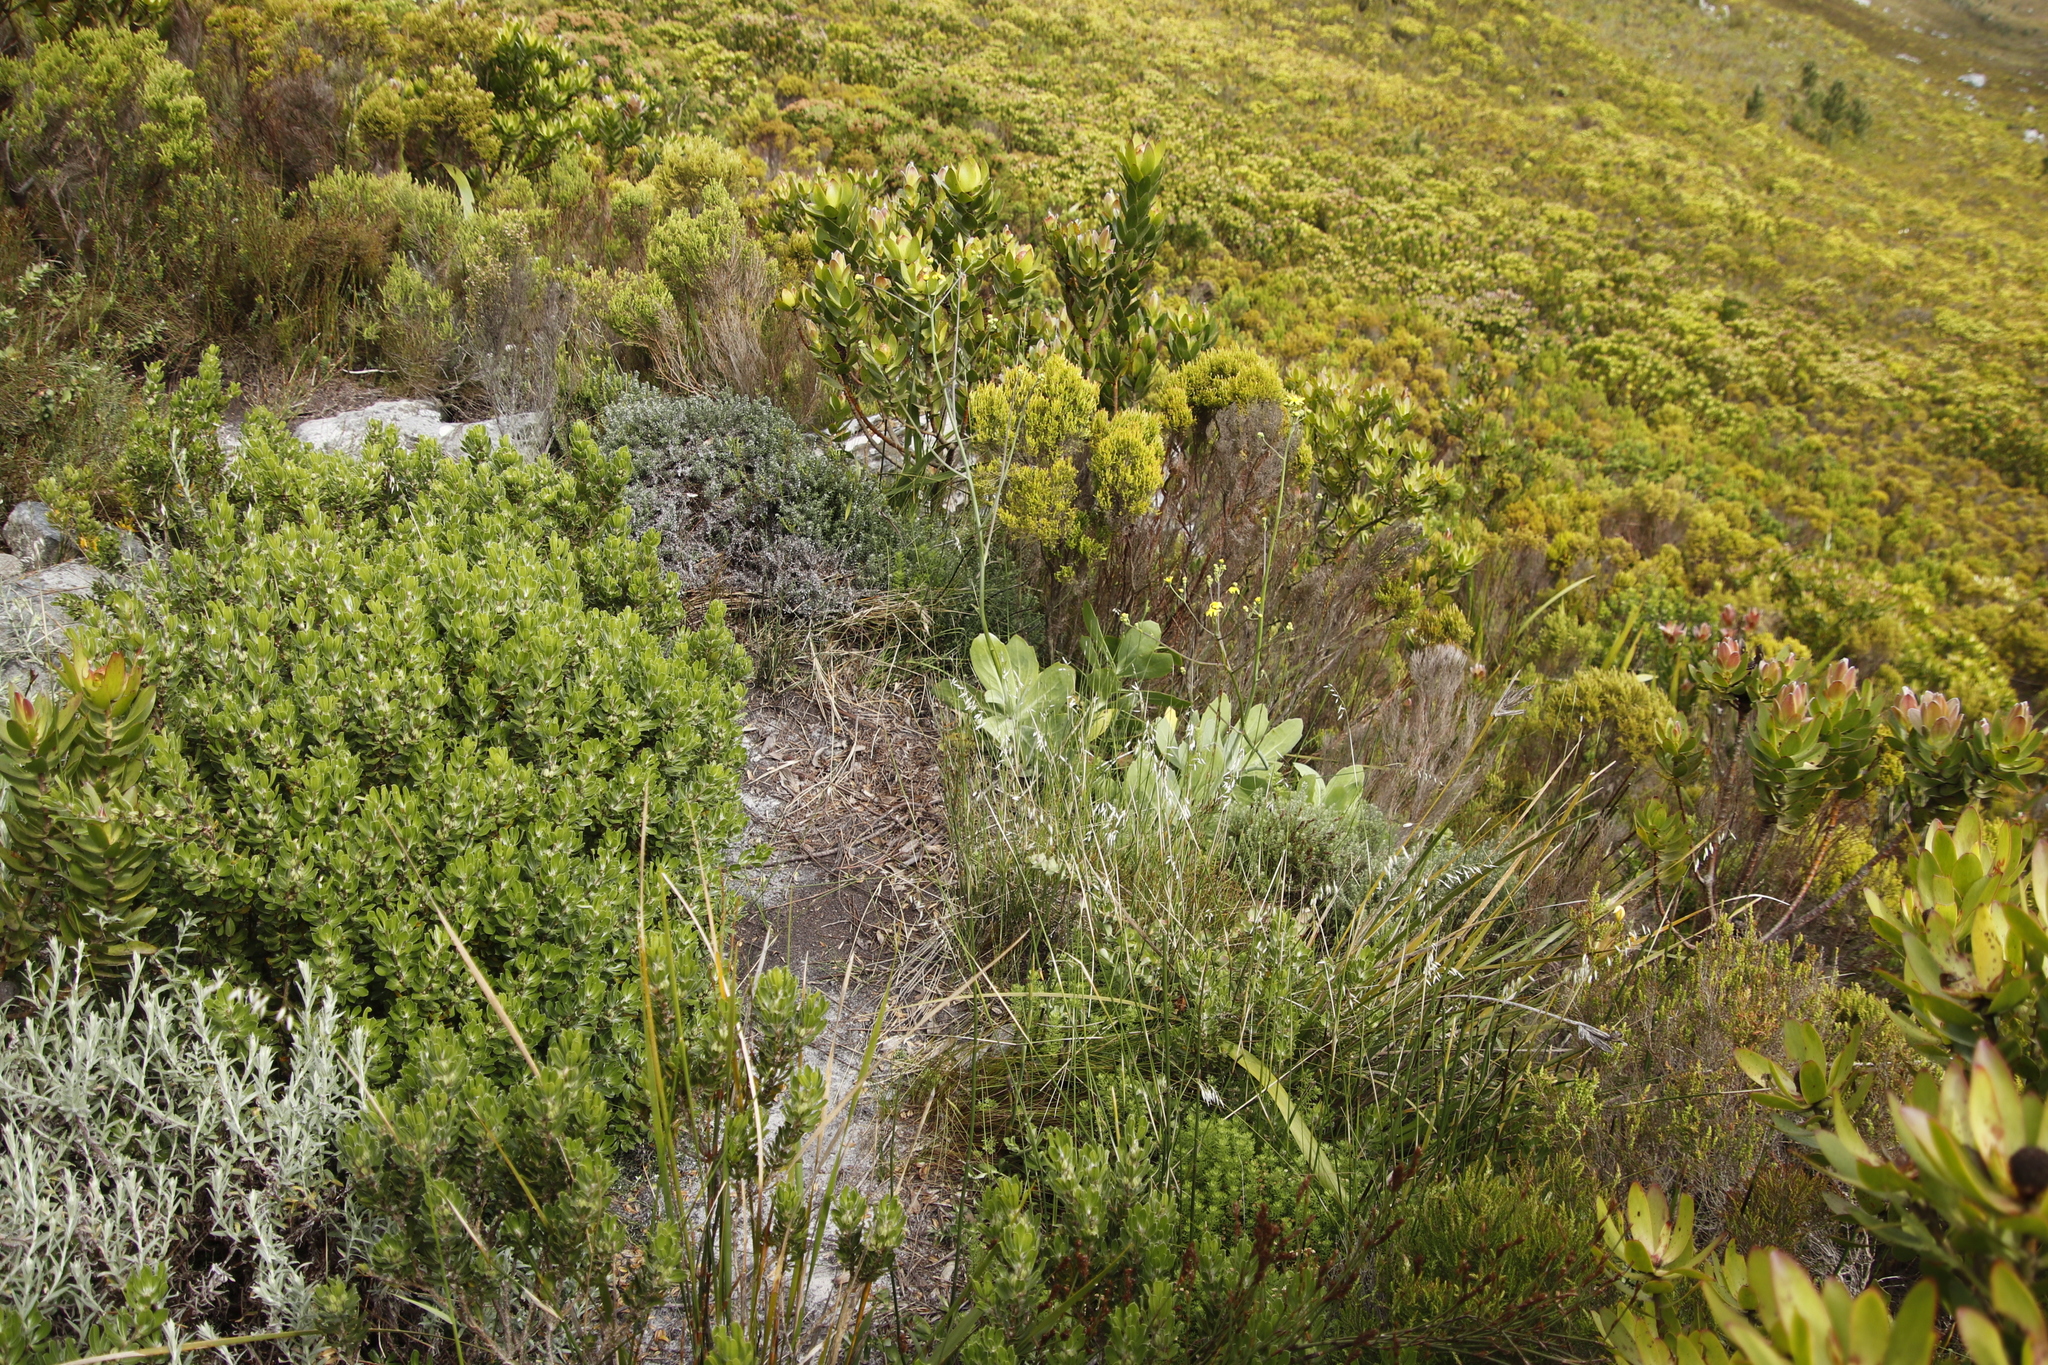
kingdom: Plantae
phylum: Tracheophyta
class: Magnoliopsida
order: Asterales
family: Asteraceae
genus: Othonna
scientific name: Othonna quinquedentata
